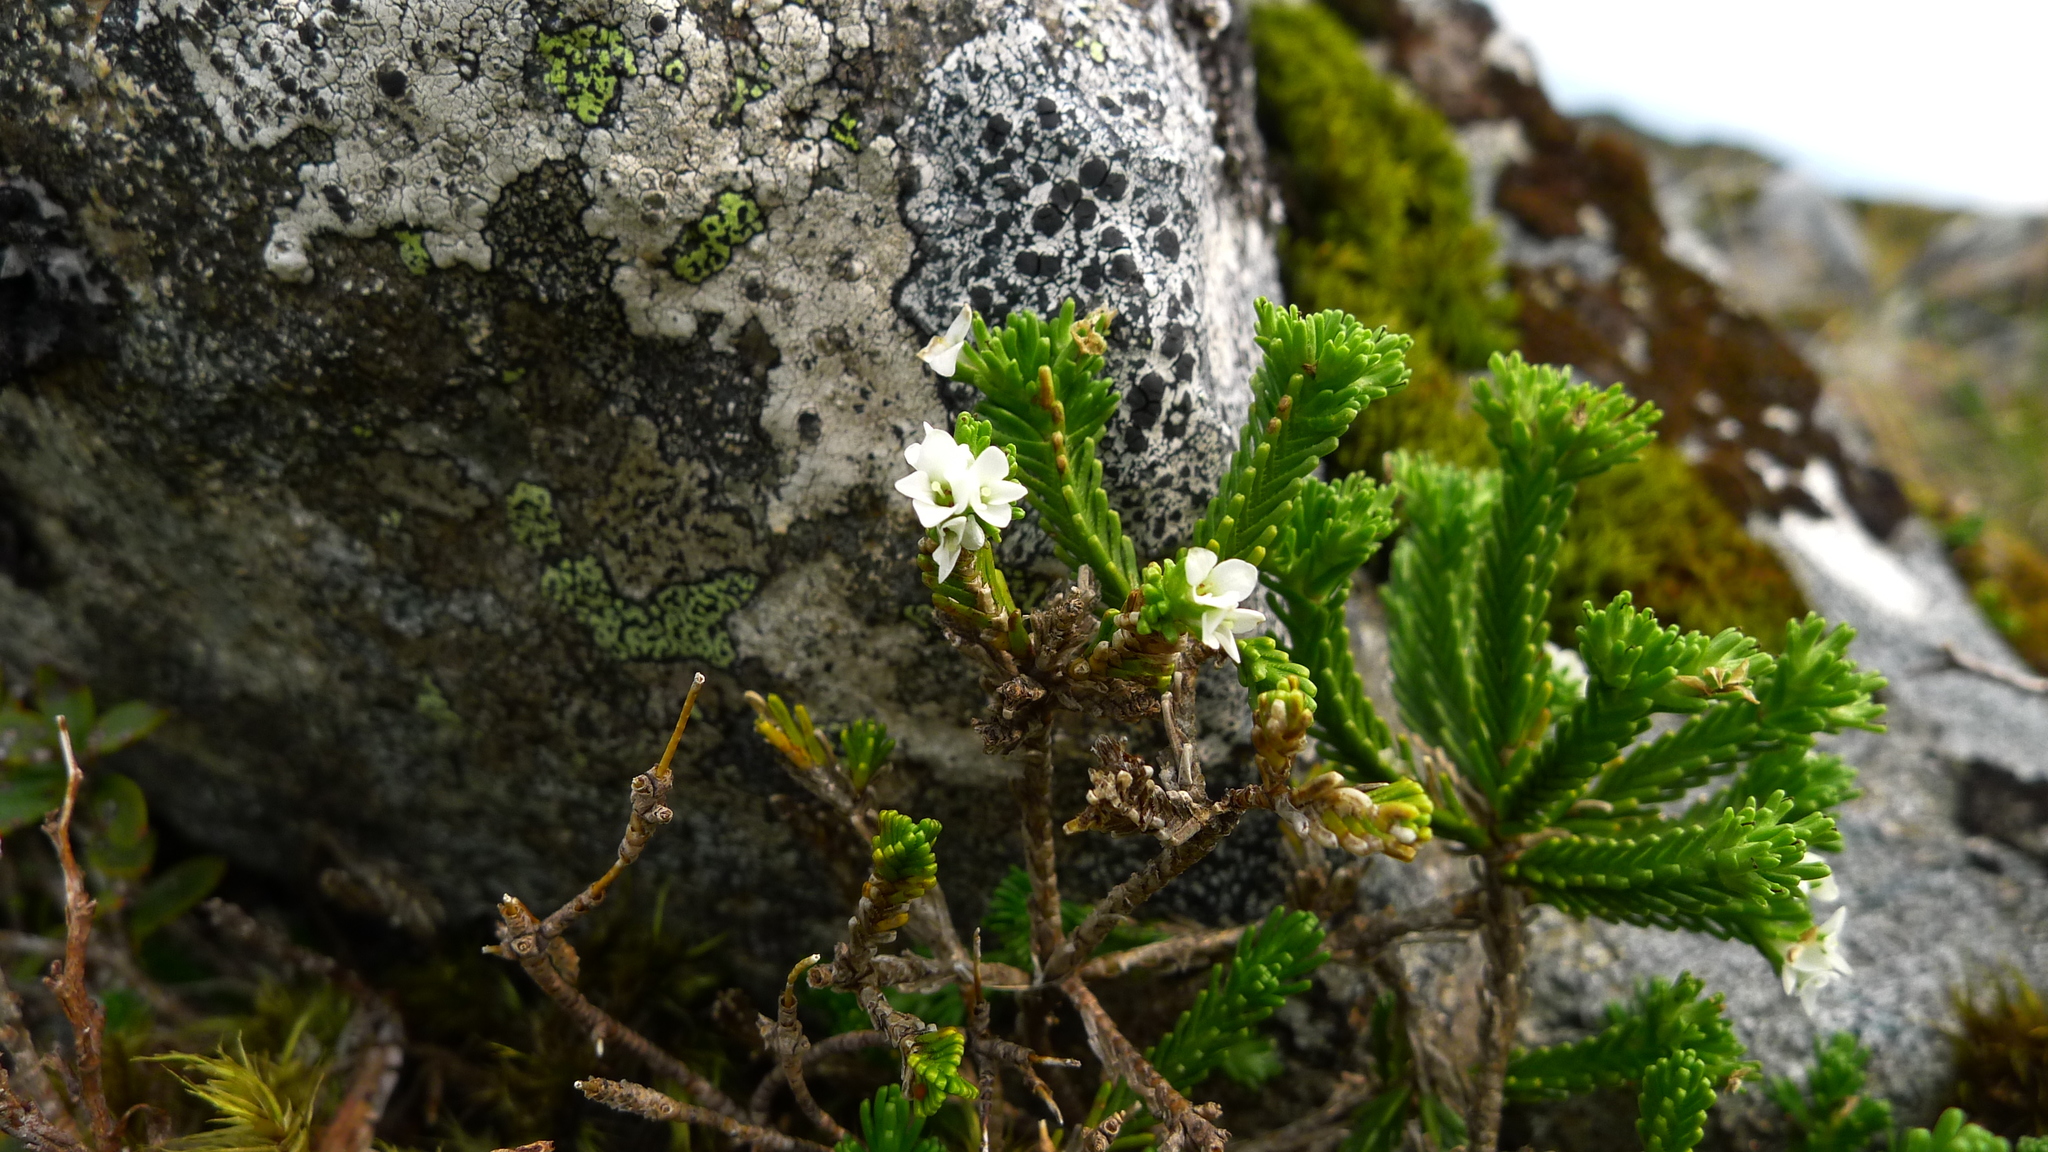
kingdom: Plantae
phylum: Tracheophyta
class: Magnoliopsida
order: Lamiales
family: Plantaginaceae
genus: Veronica
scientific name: Veronica hookeri
